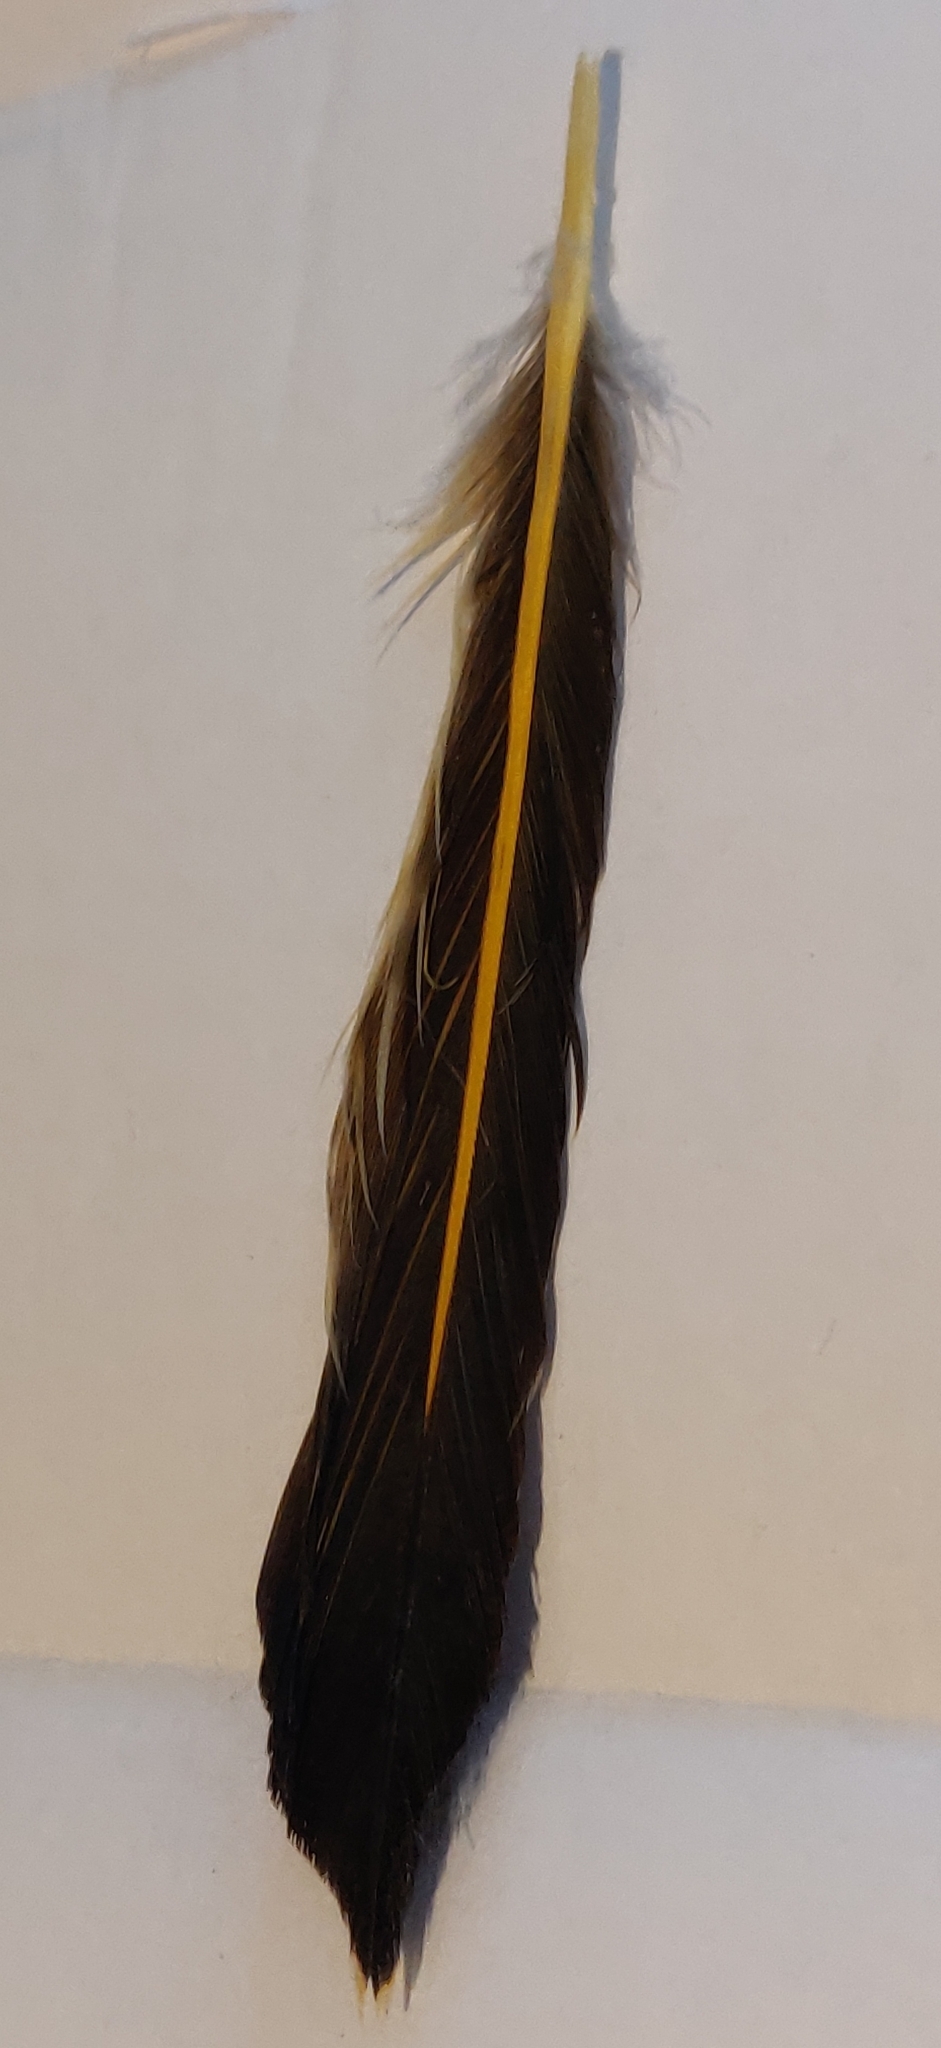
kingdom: Animalia
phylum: Chordata
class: Aves
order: Piciformes
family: Picidae
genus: Colaptes
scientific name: Colaptes auratus
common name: Northern flicker
